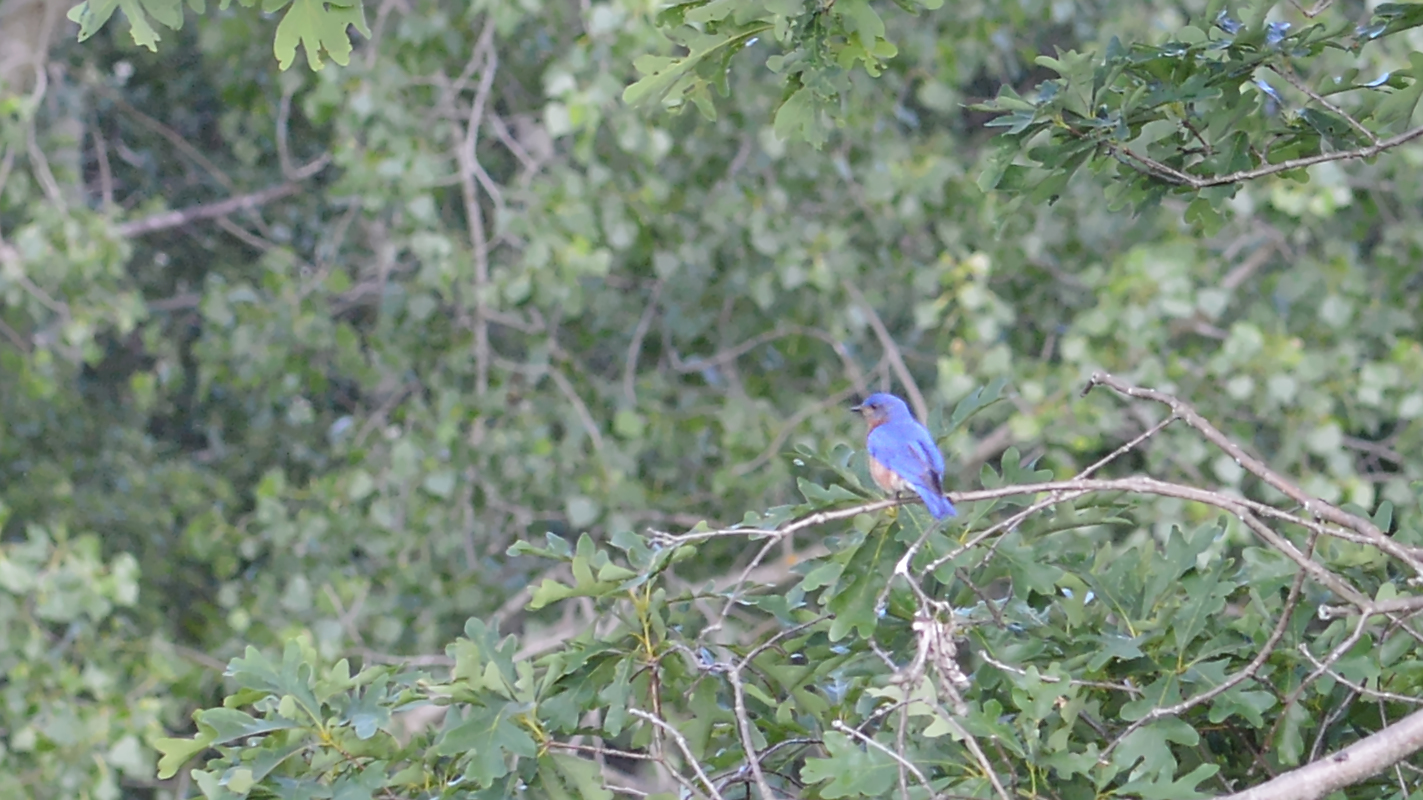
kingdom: Animalia
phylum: Chordata
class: Aves
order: Passeriformes
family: Turdidae
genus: Sialia
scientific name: Sialia sialis
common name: Eastern bluebird
